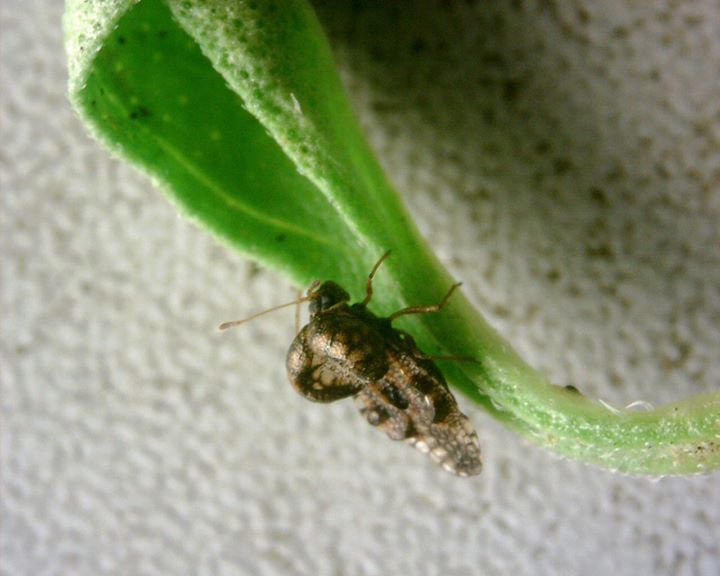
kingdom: Animalia
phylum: Arthropoda
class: Insecta
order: Hemiptera
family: Tingidae
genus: Cochlochila
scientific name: Cochlochila bullita
